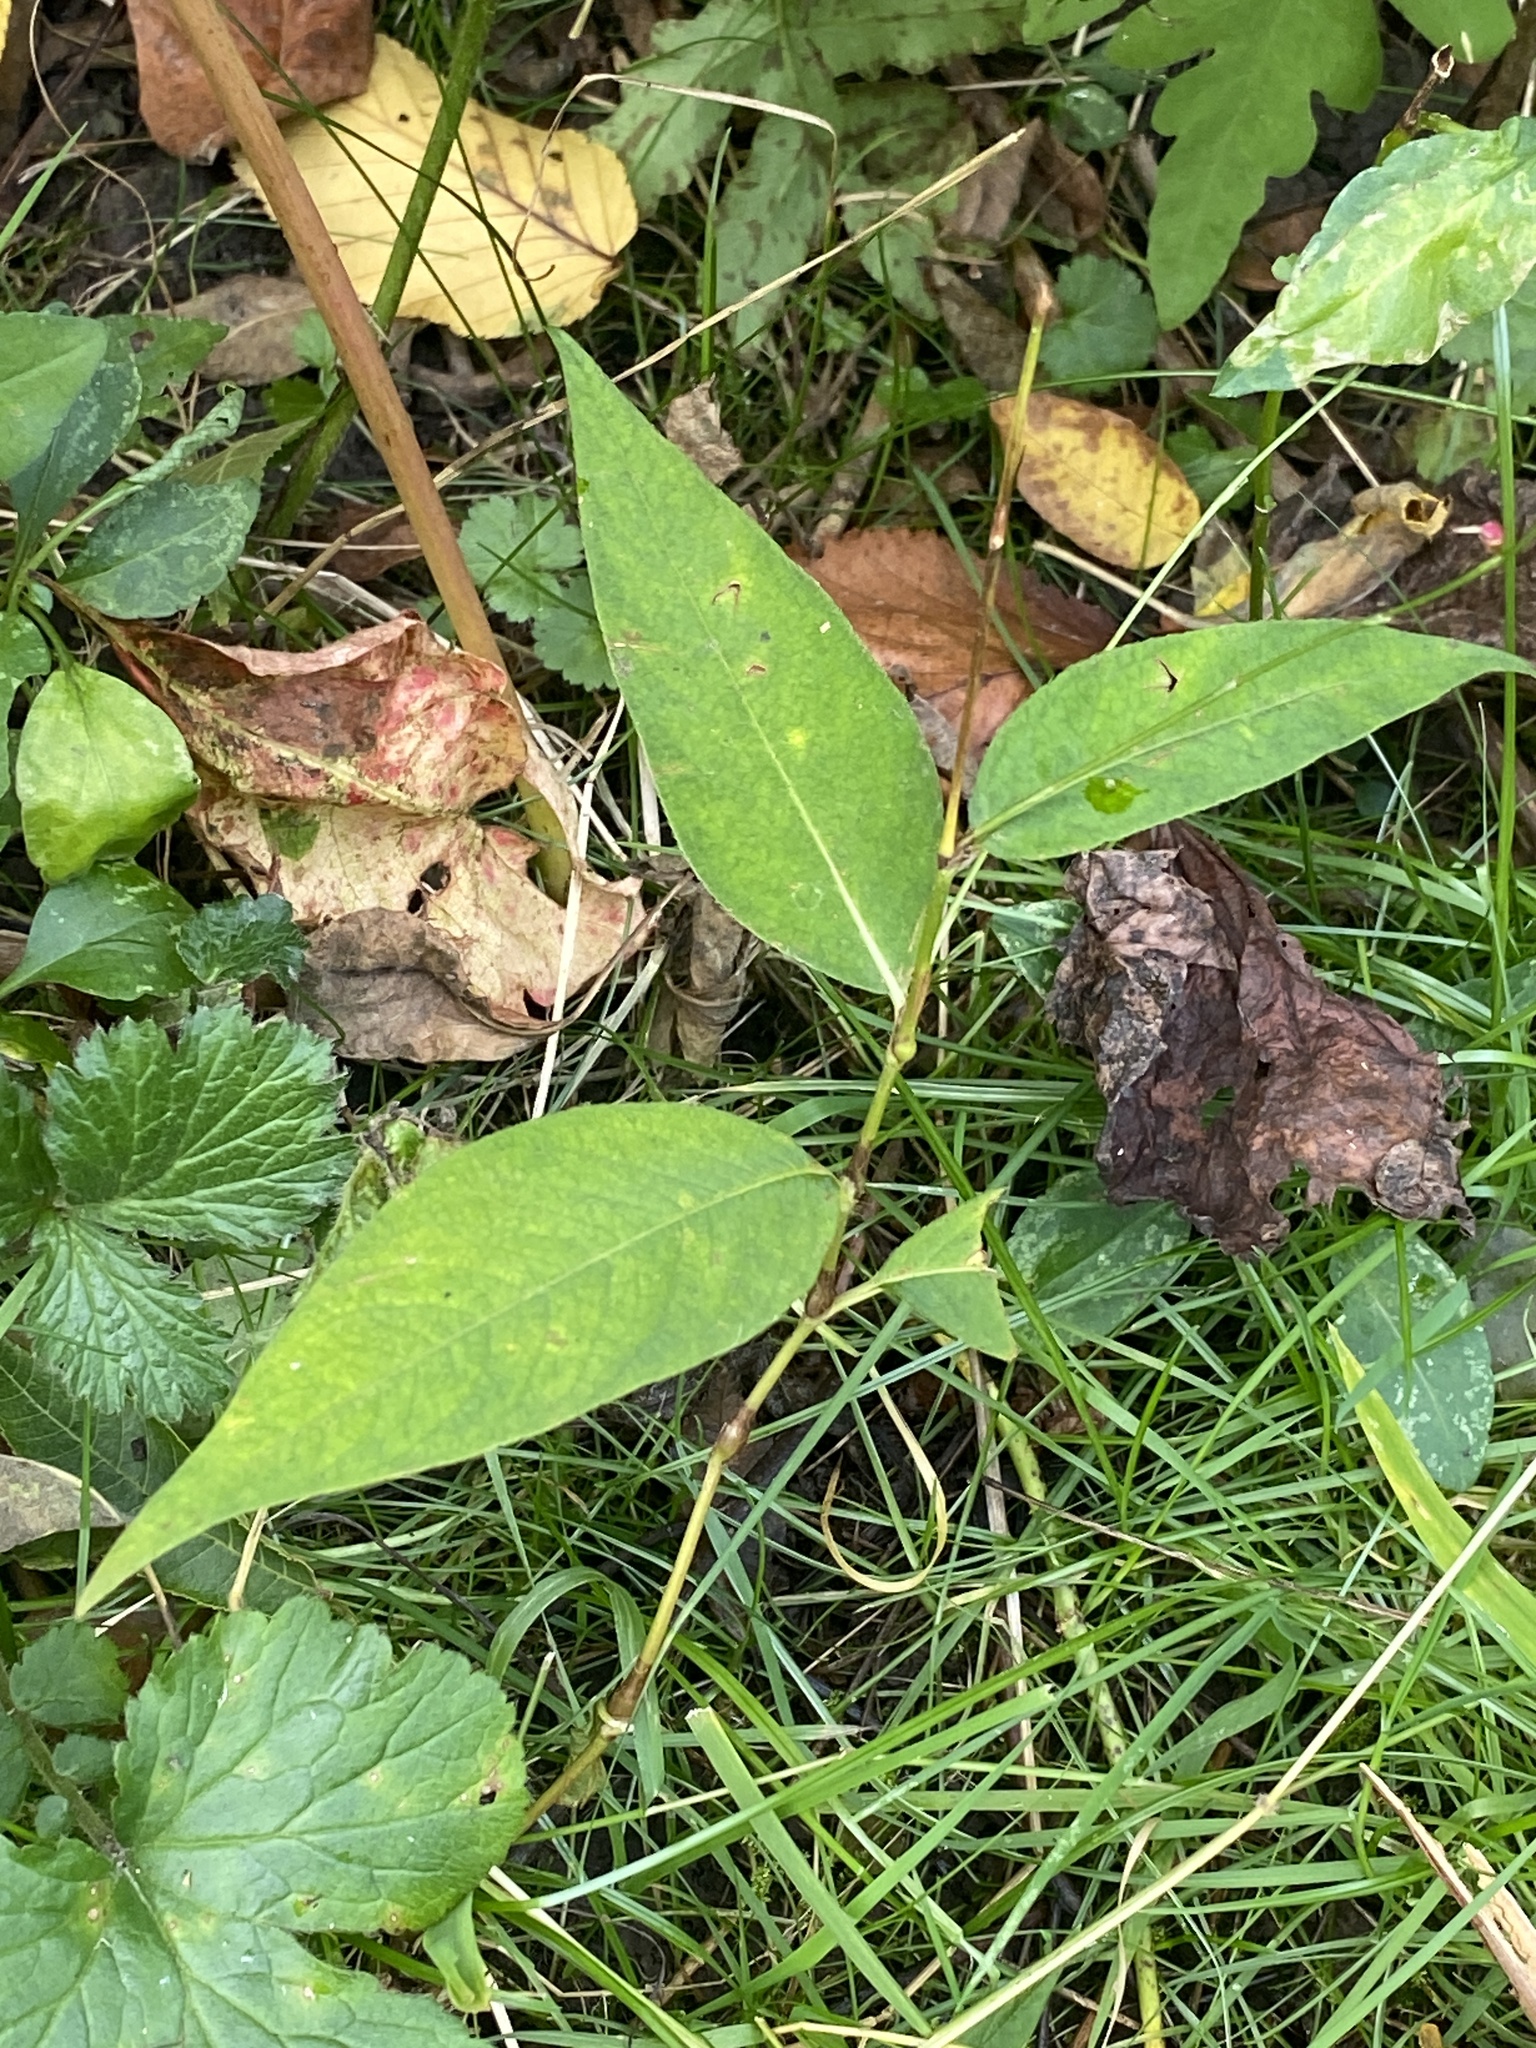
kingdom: Plantae
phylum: Tracheophyta
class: Magnoliopsida
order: Caryophyllales
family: Polygonaceae
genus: Persicaria
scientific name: Persicaria virginiana
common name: Jumpseed
